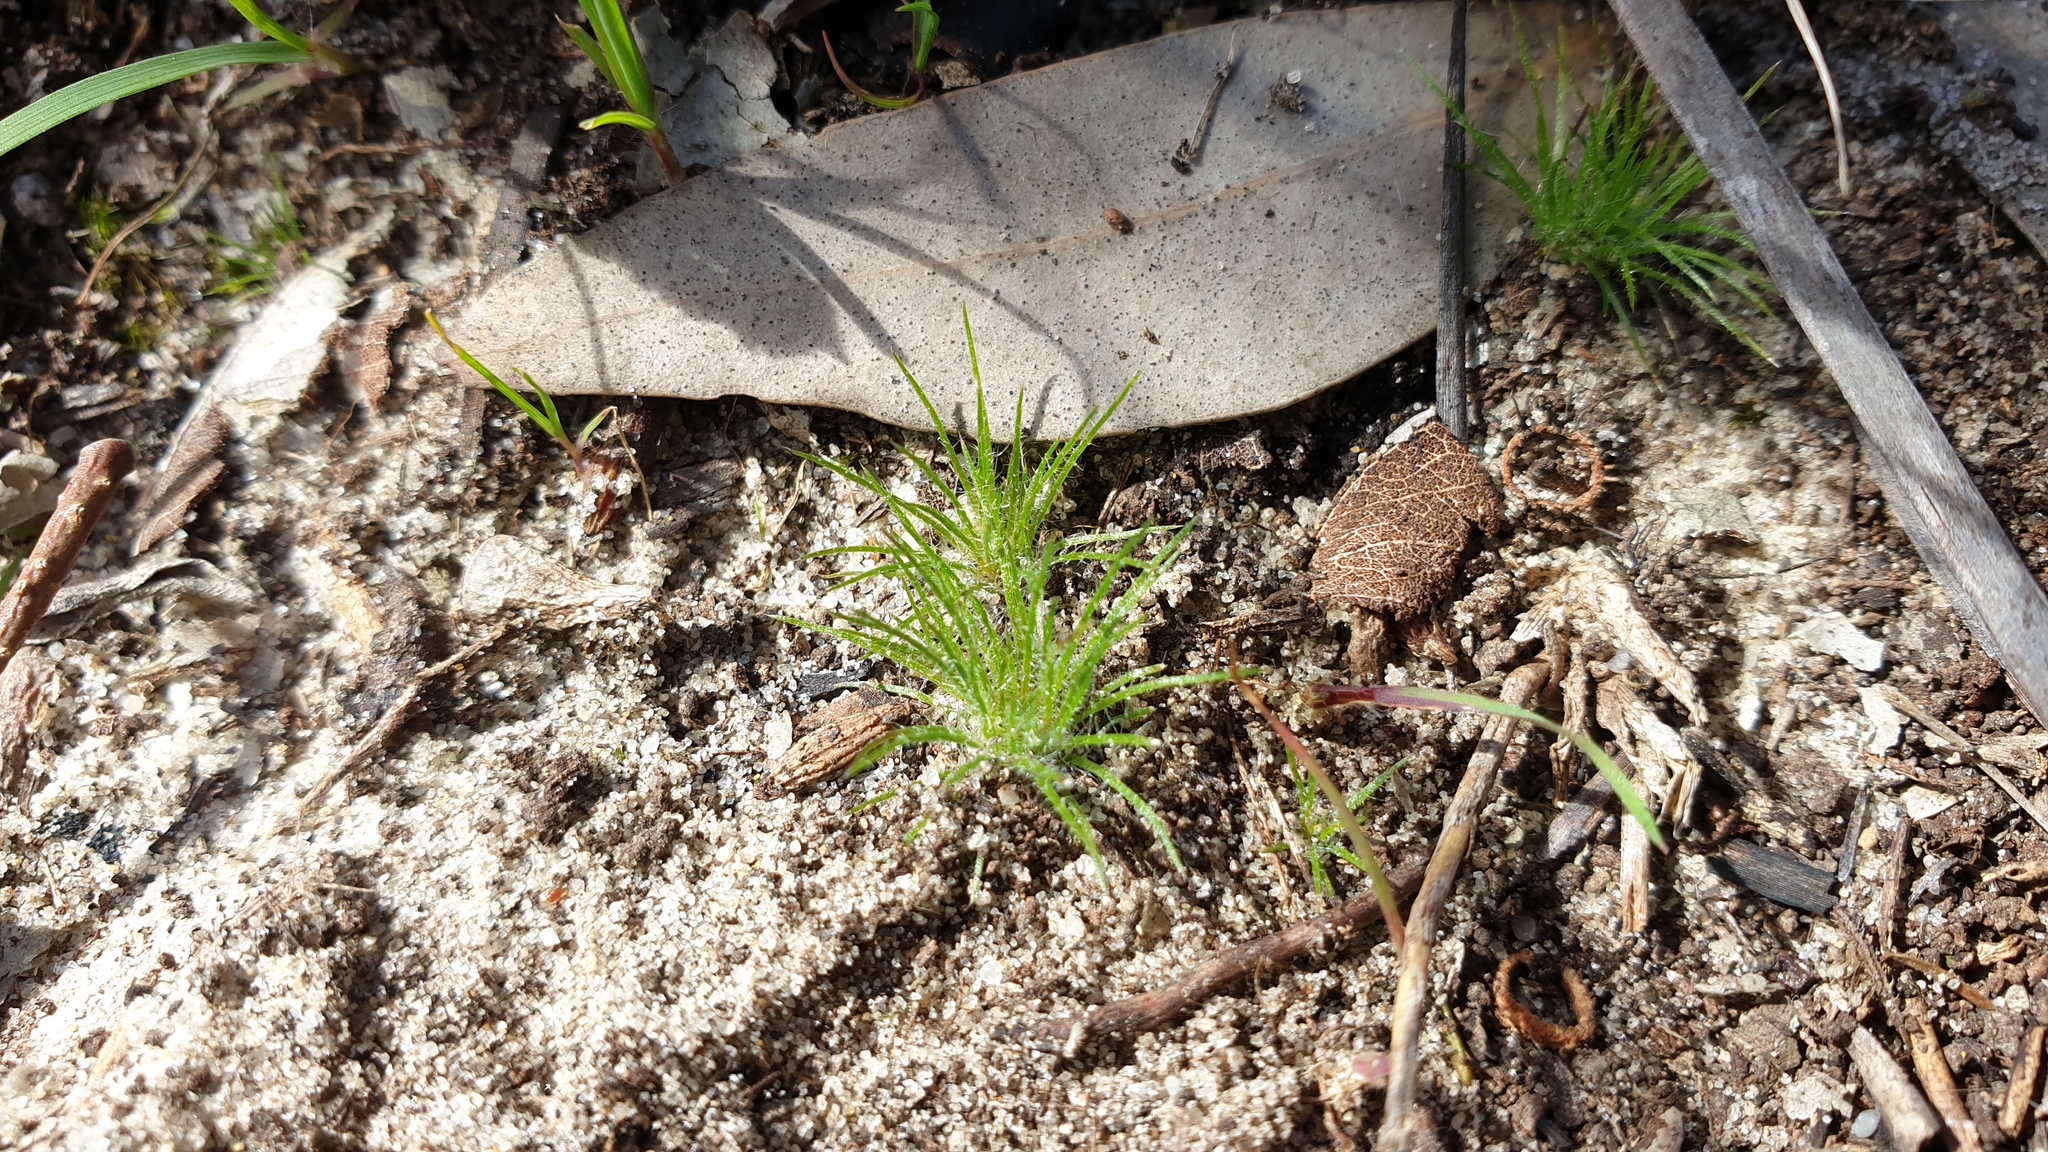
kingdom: Plantae
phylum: Tracheophyta
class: Liliopsida
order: Poales
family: Restionaceae
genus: Centrolepis
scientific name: Centrolepis strigosa
